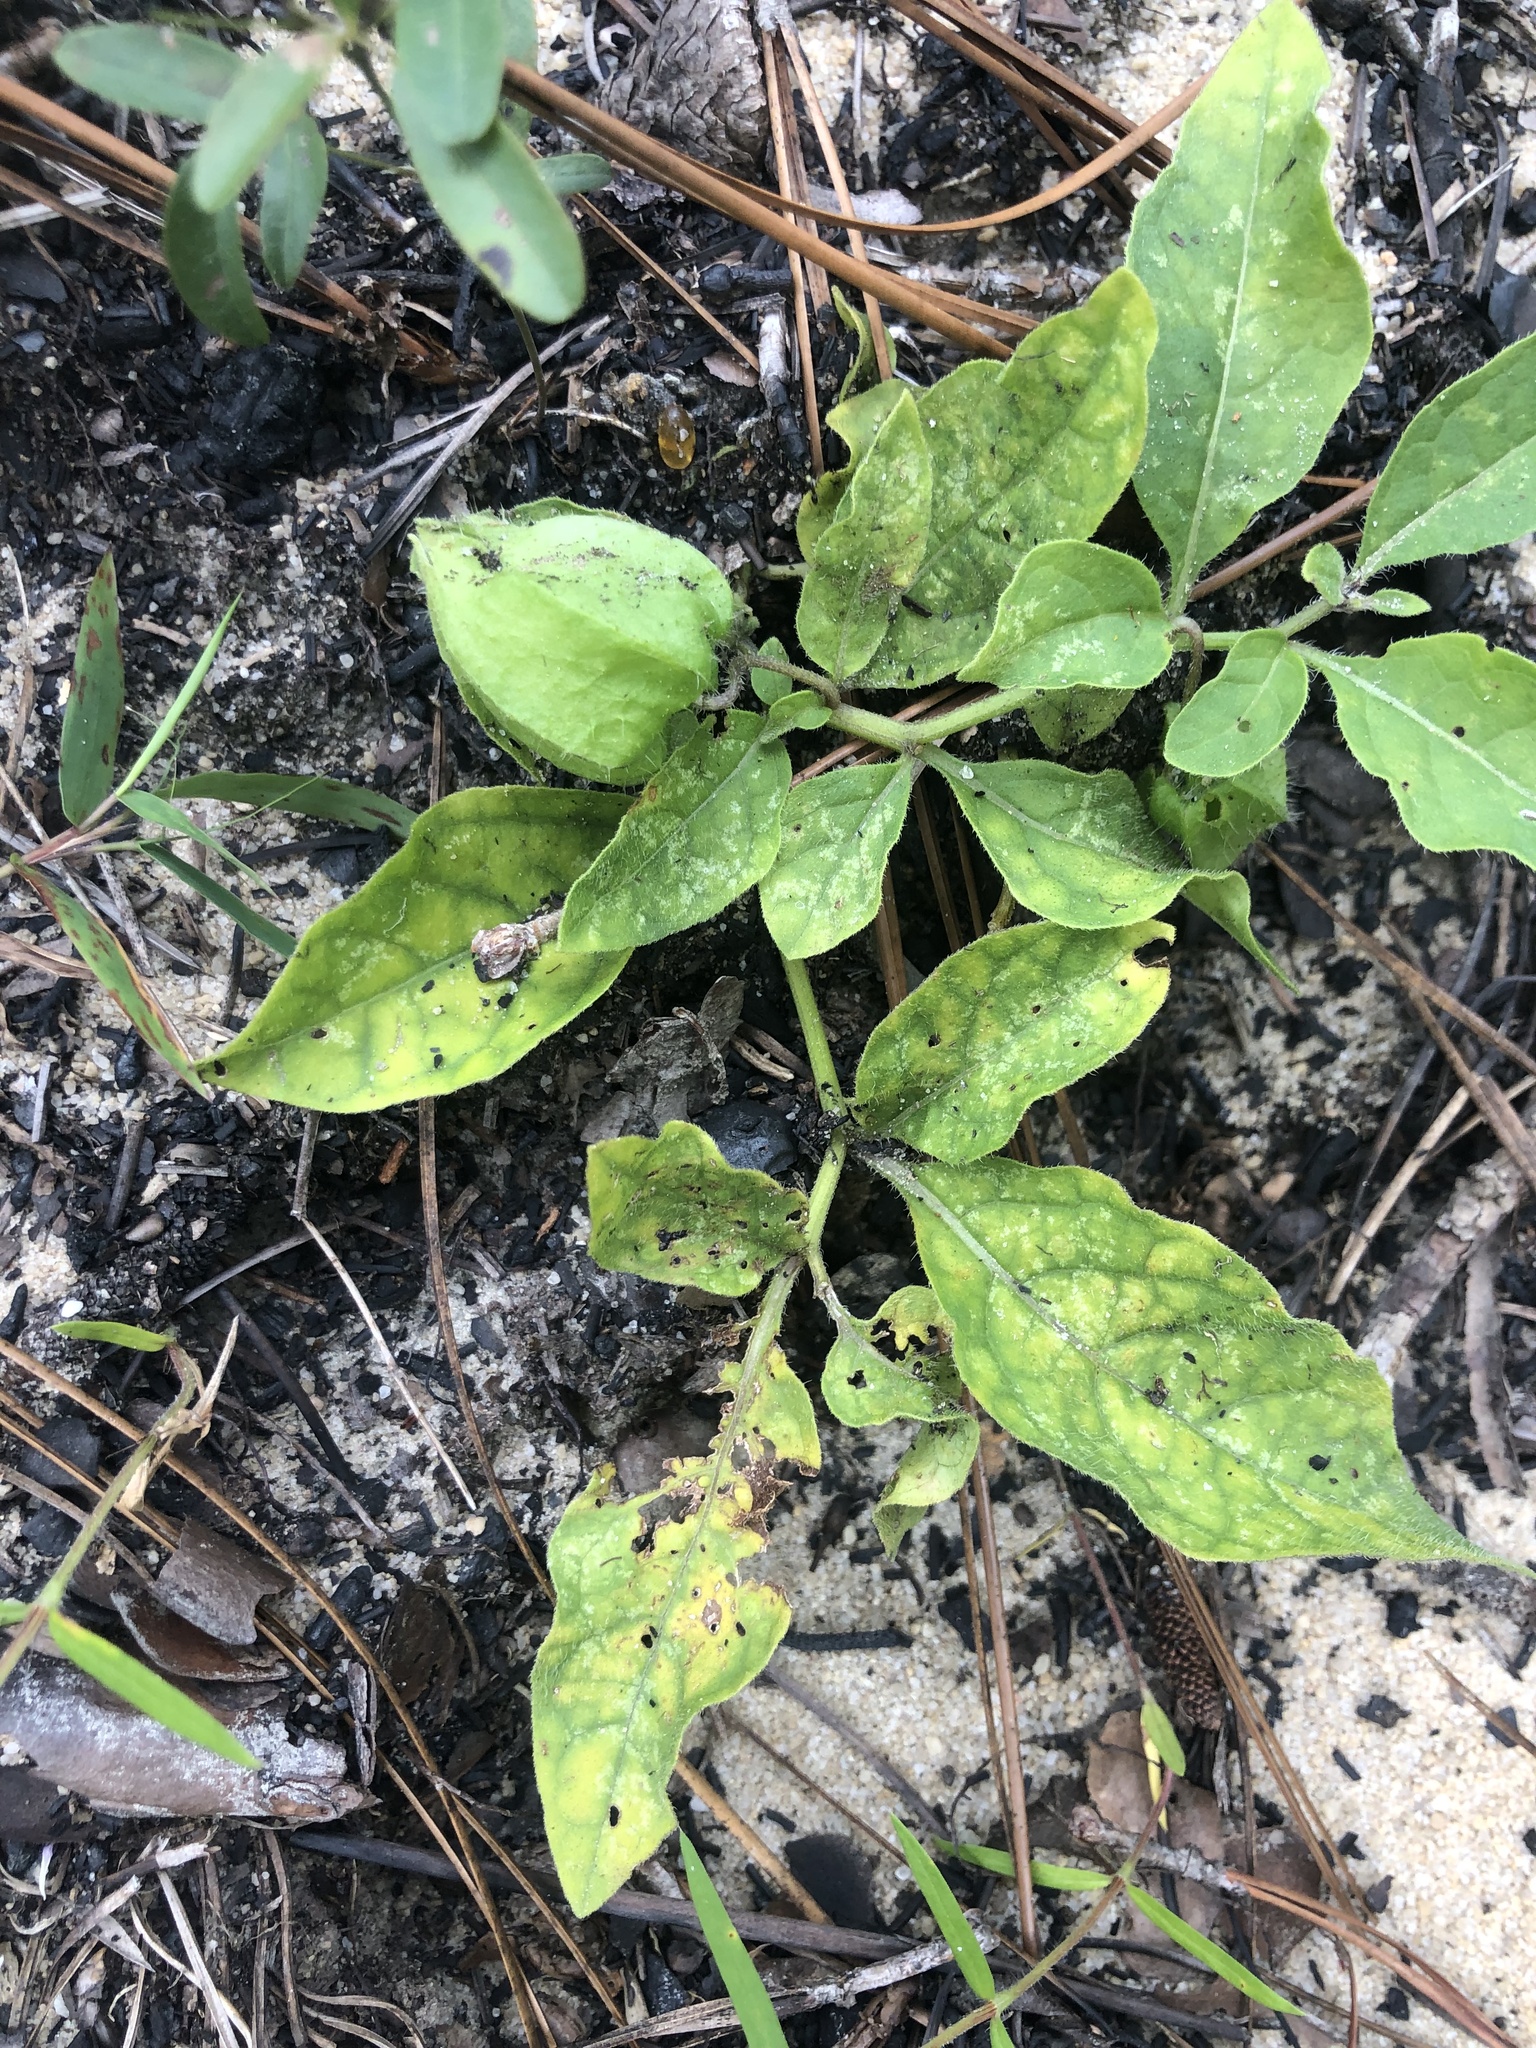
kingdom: Plantae
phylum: Tracheophyta
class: Magnoliopsida
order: Solanales
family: Solanaceae
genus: Physalis
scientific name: Physalis lanceolata
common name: Lance-leaved ground-cherry
